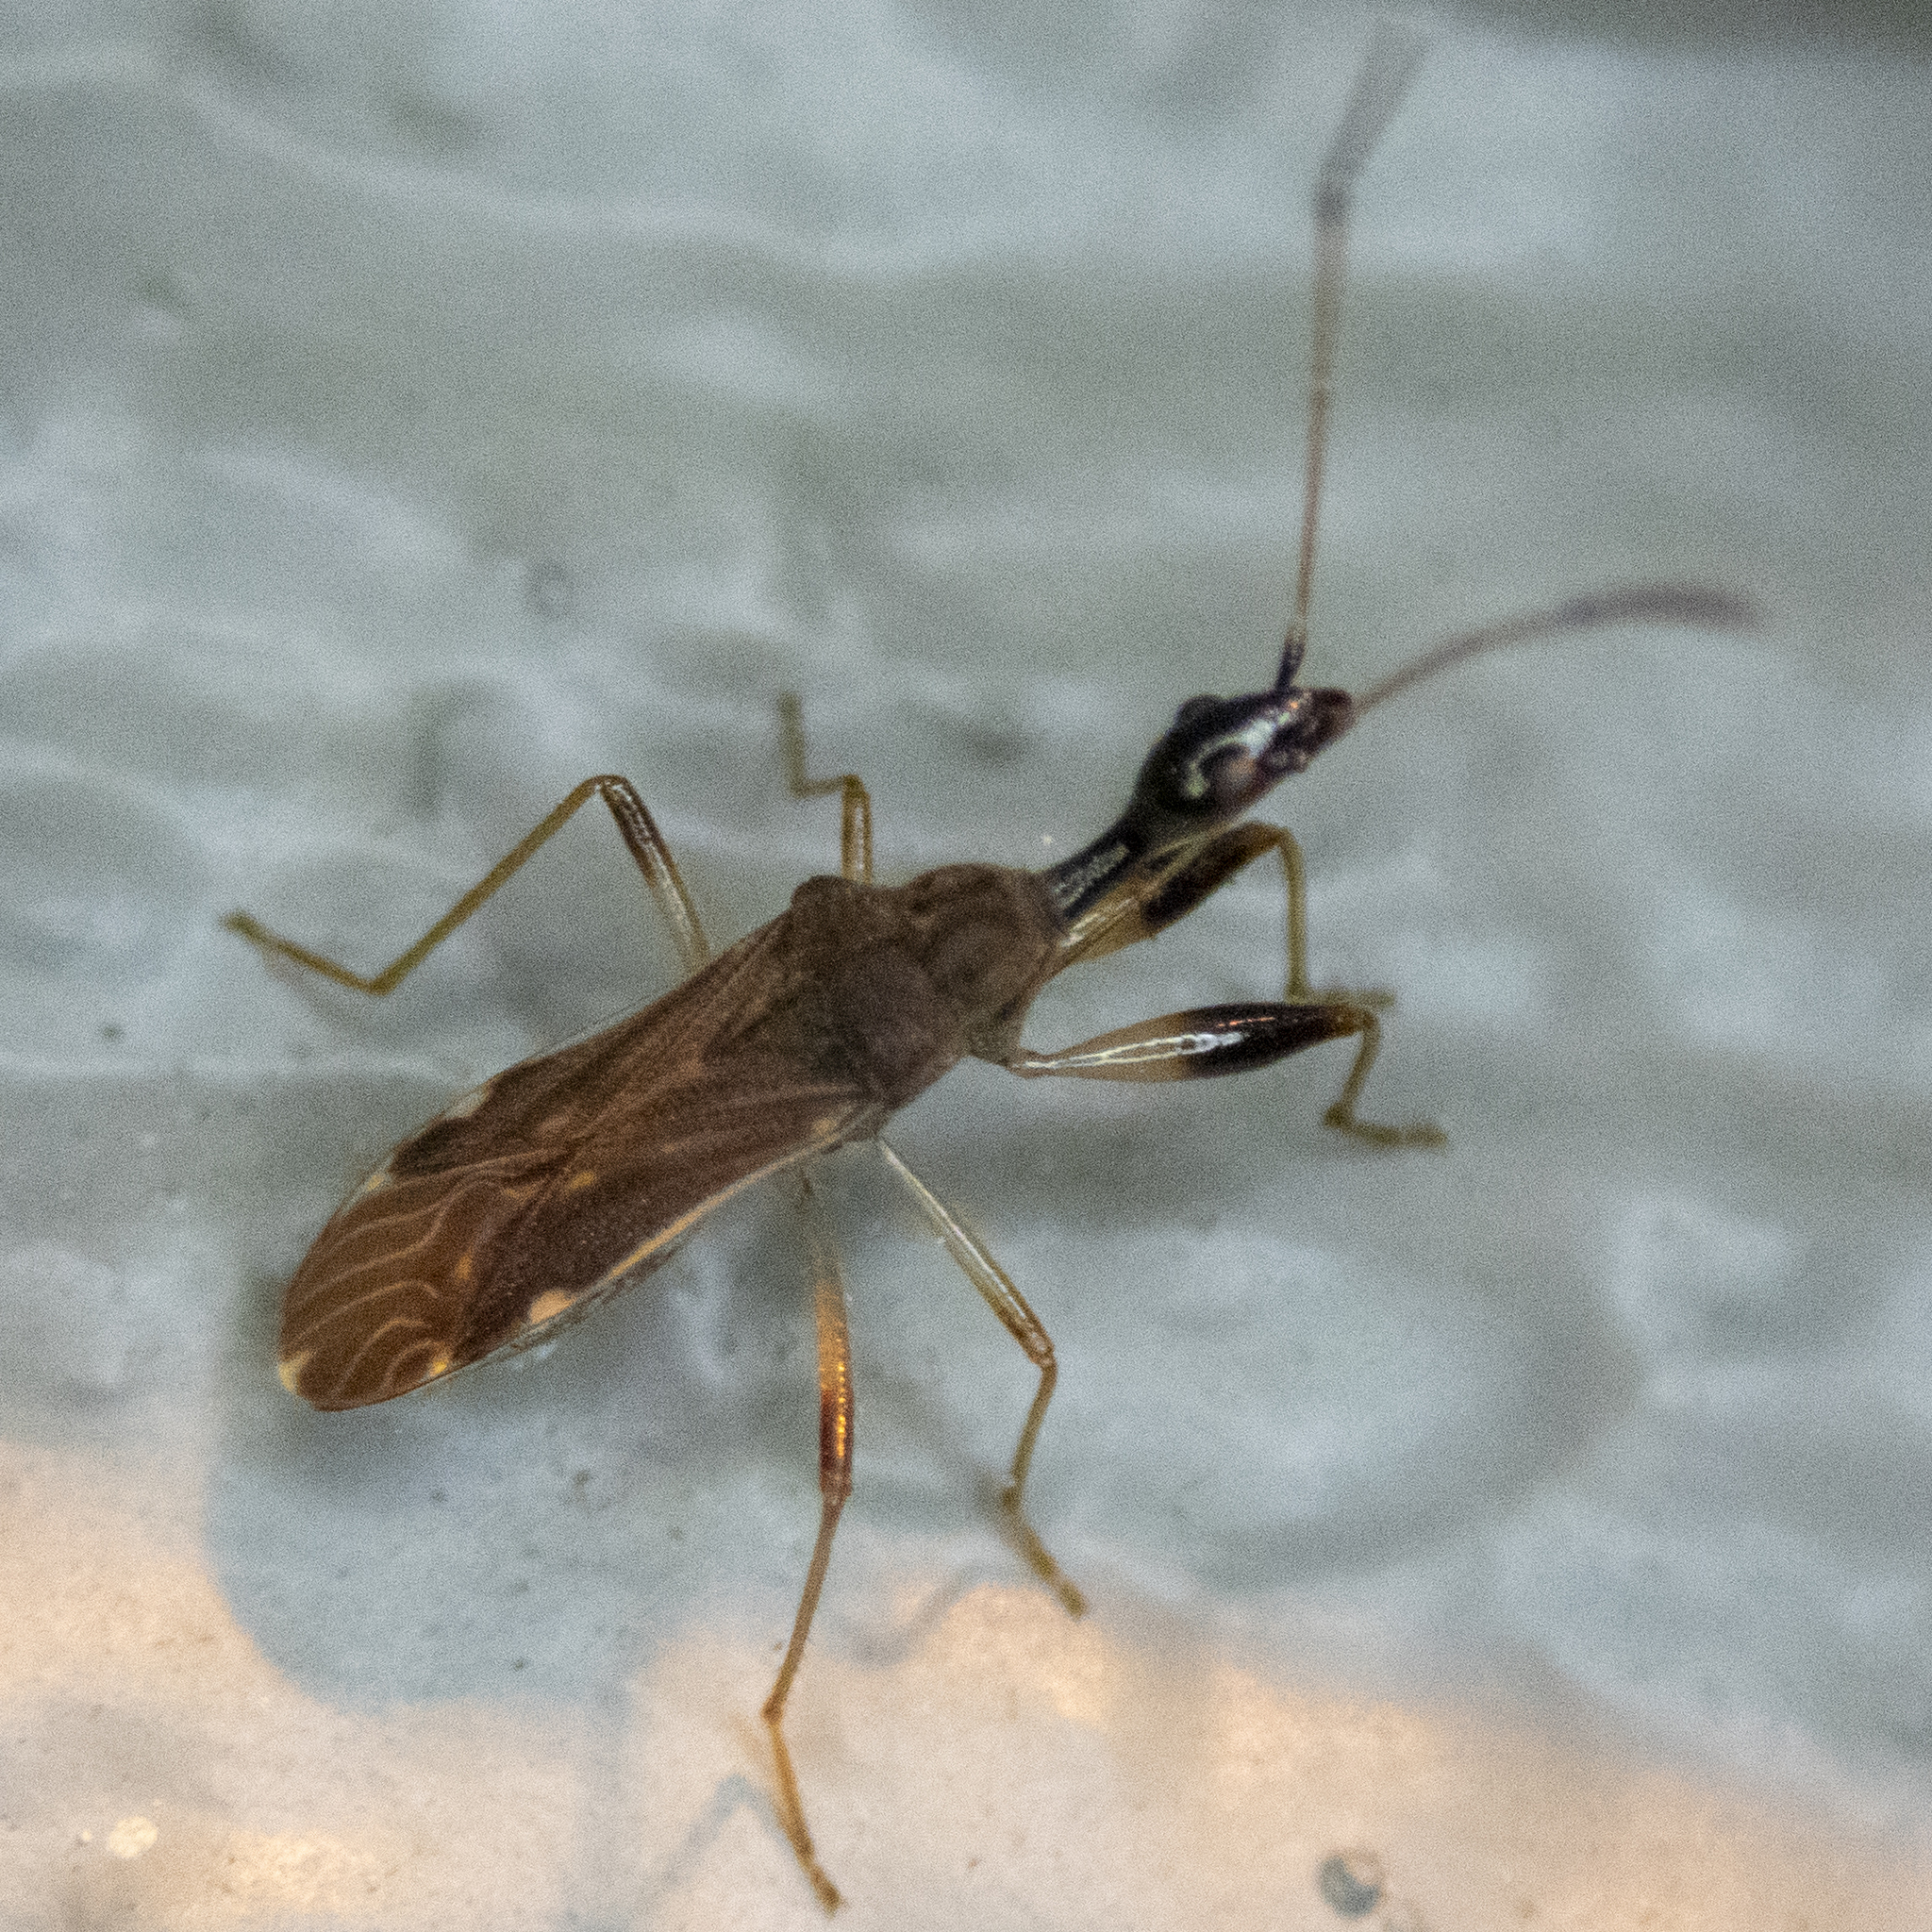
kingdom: Animalia
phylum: Arthropoda
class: Insecta
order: Hemiptera
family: Rhyparochromidae
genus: Myodocha
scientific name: Myodocha serripes
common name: Long-necked seed bug
